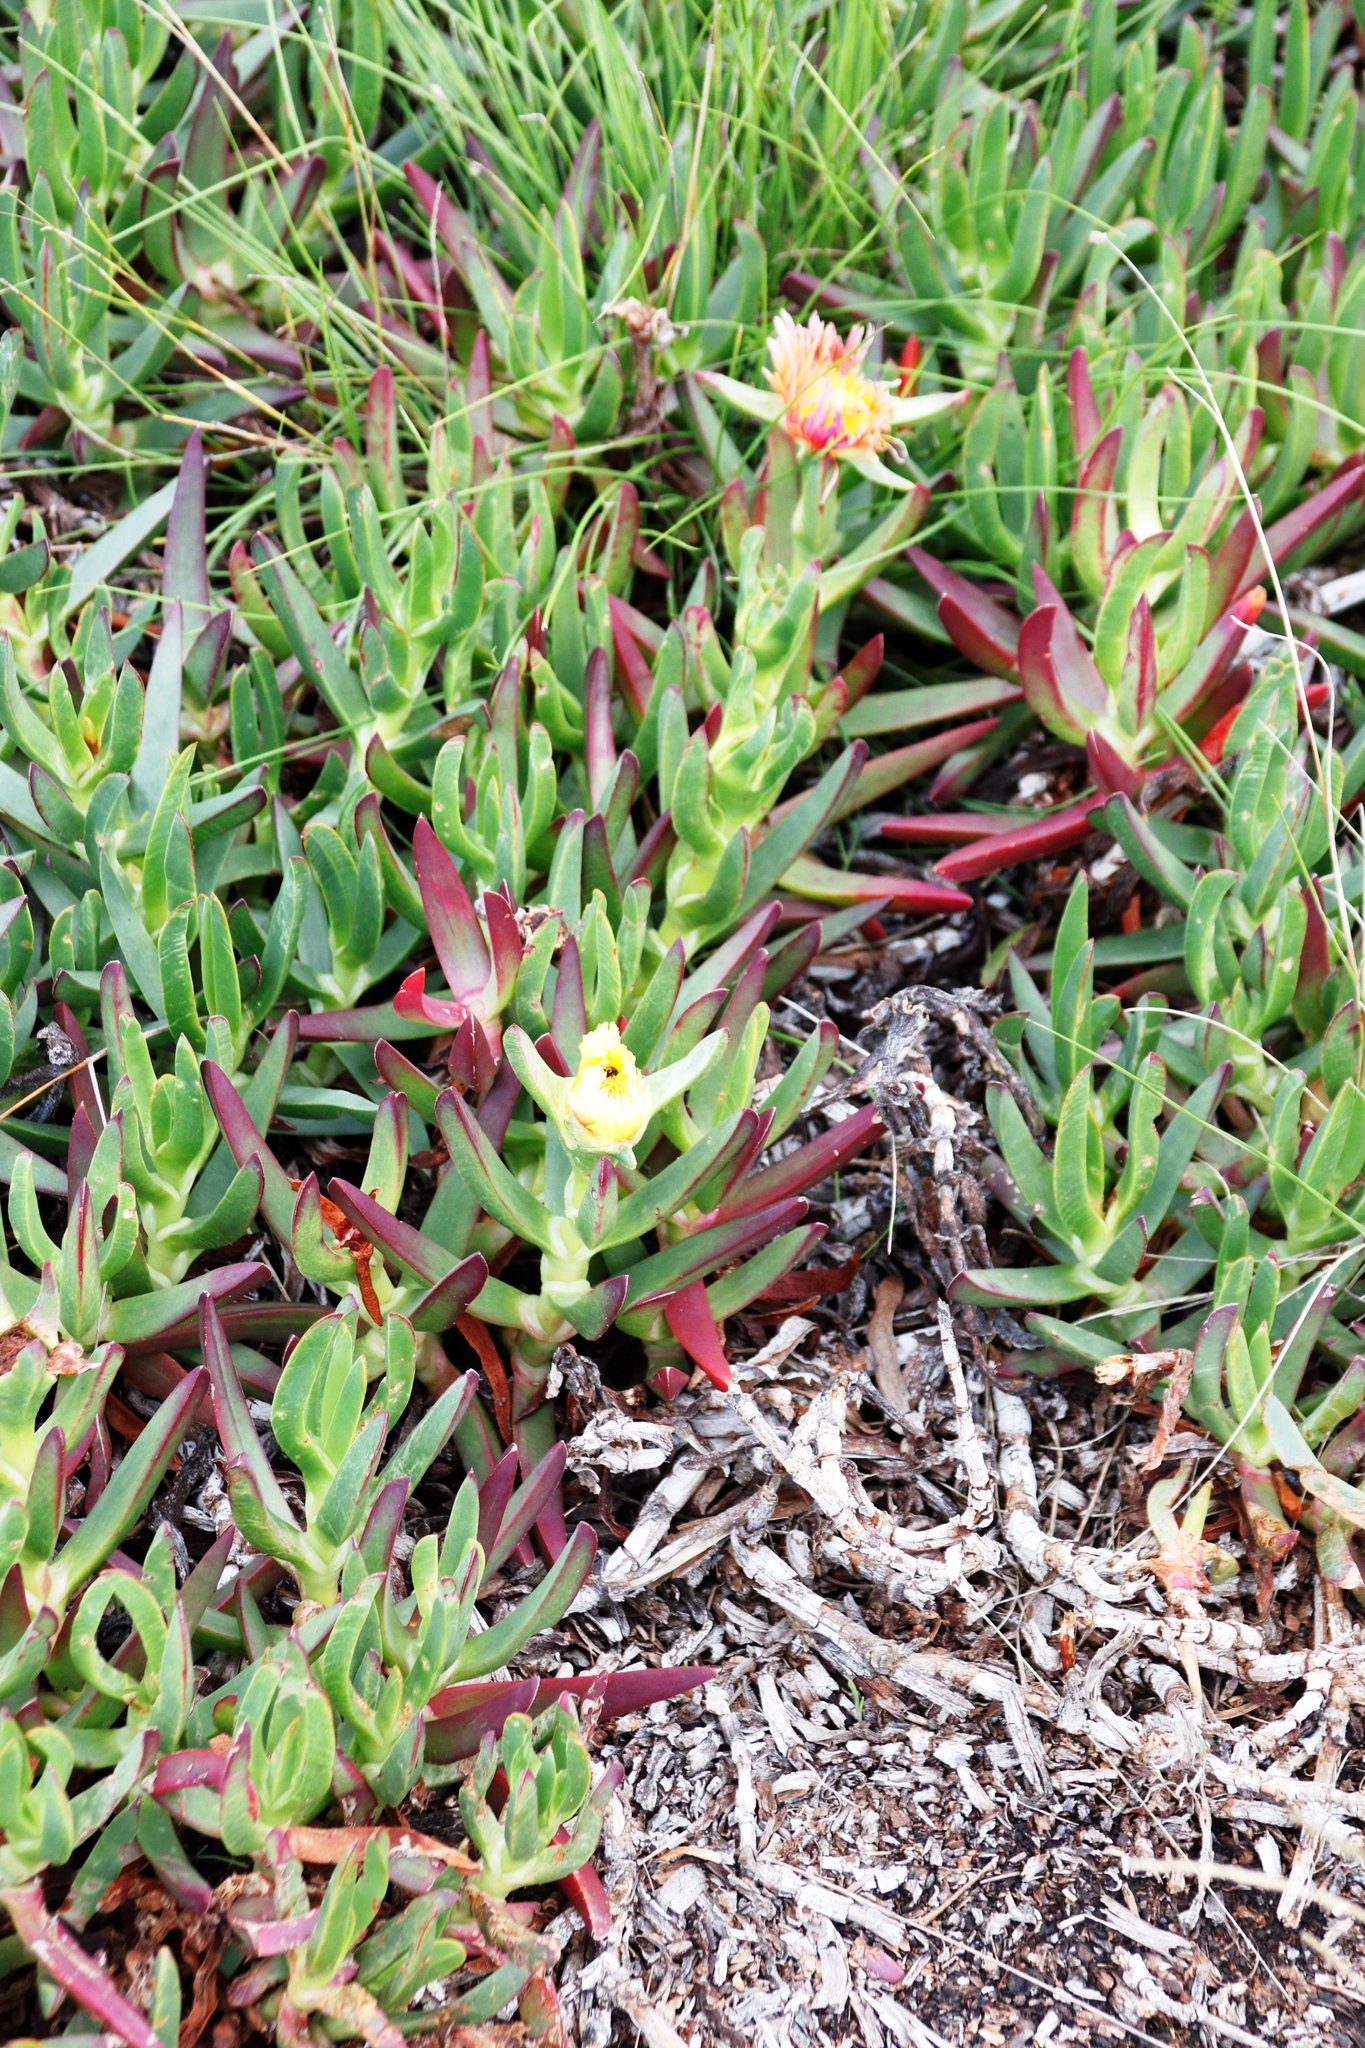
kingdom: Plantae
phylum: Tracheophyta
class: Magnoliopsida
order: Caryophyllales
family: Aizoaceae
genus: Carpobrotus
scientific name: Carpobrotus edulis
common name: Hottentot-fig
